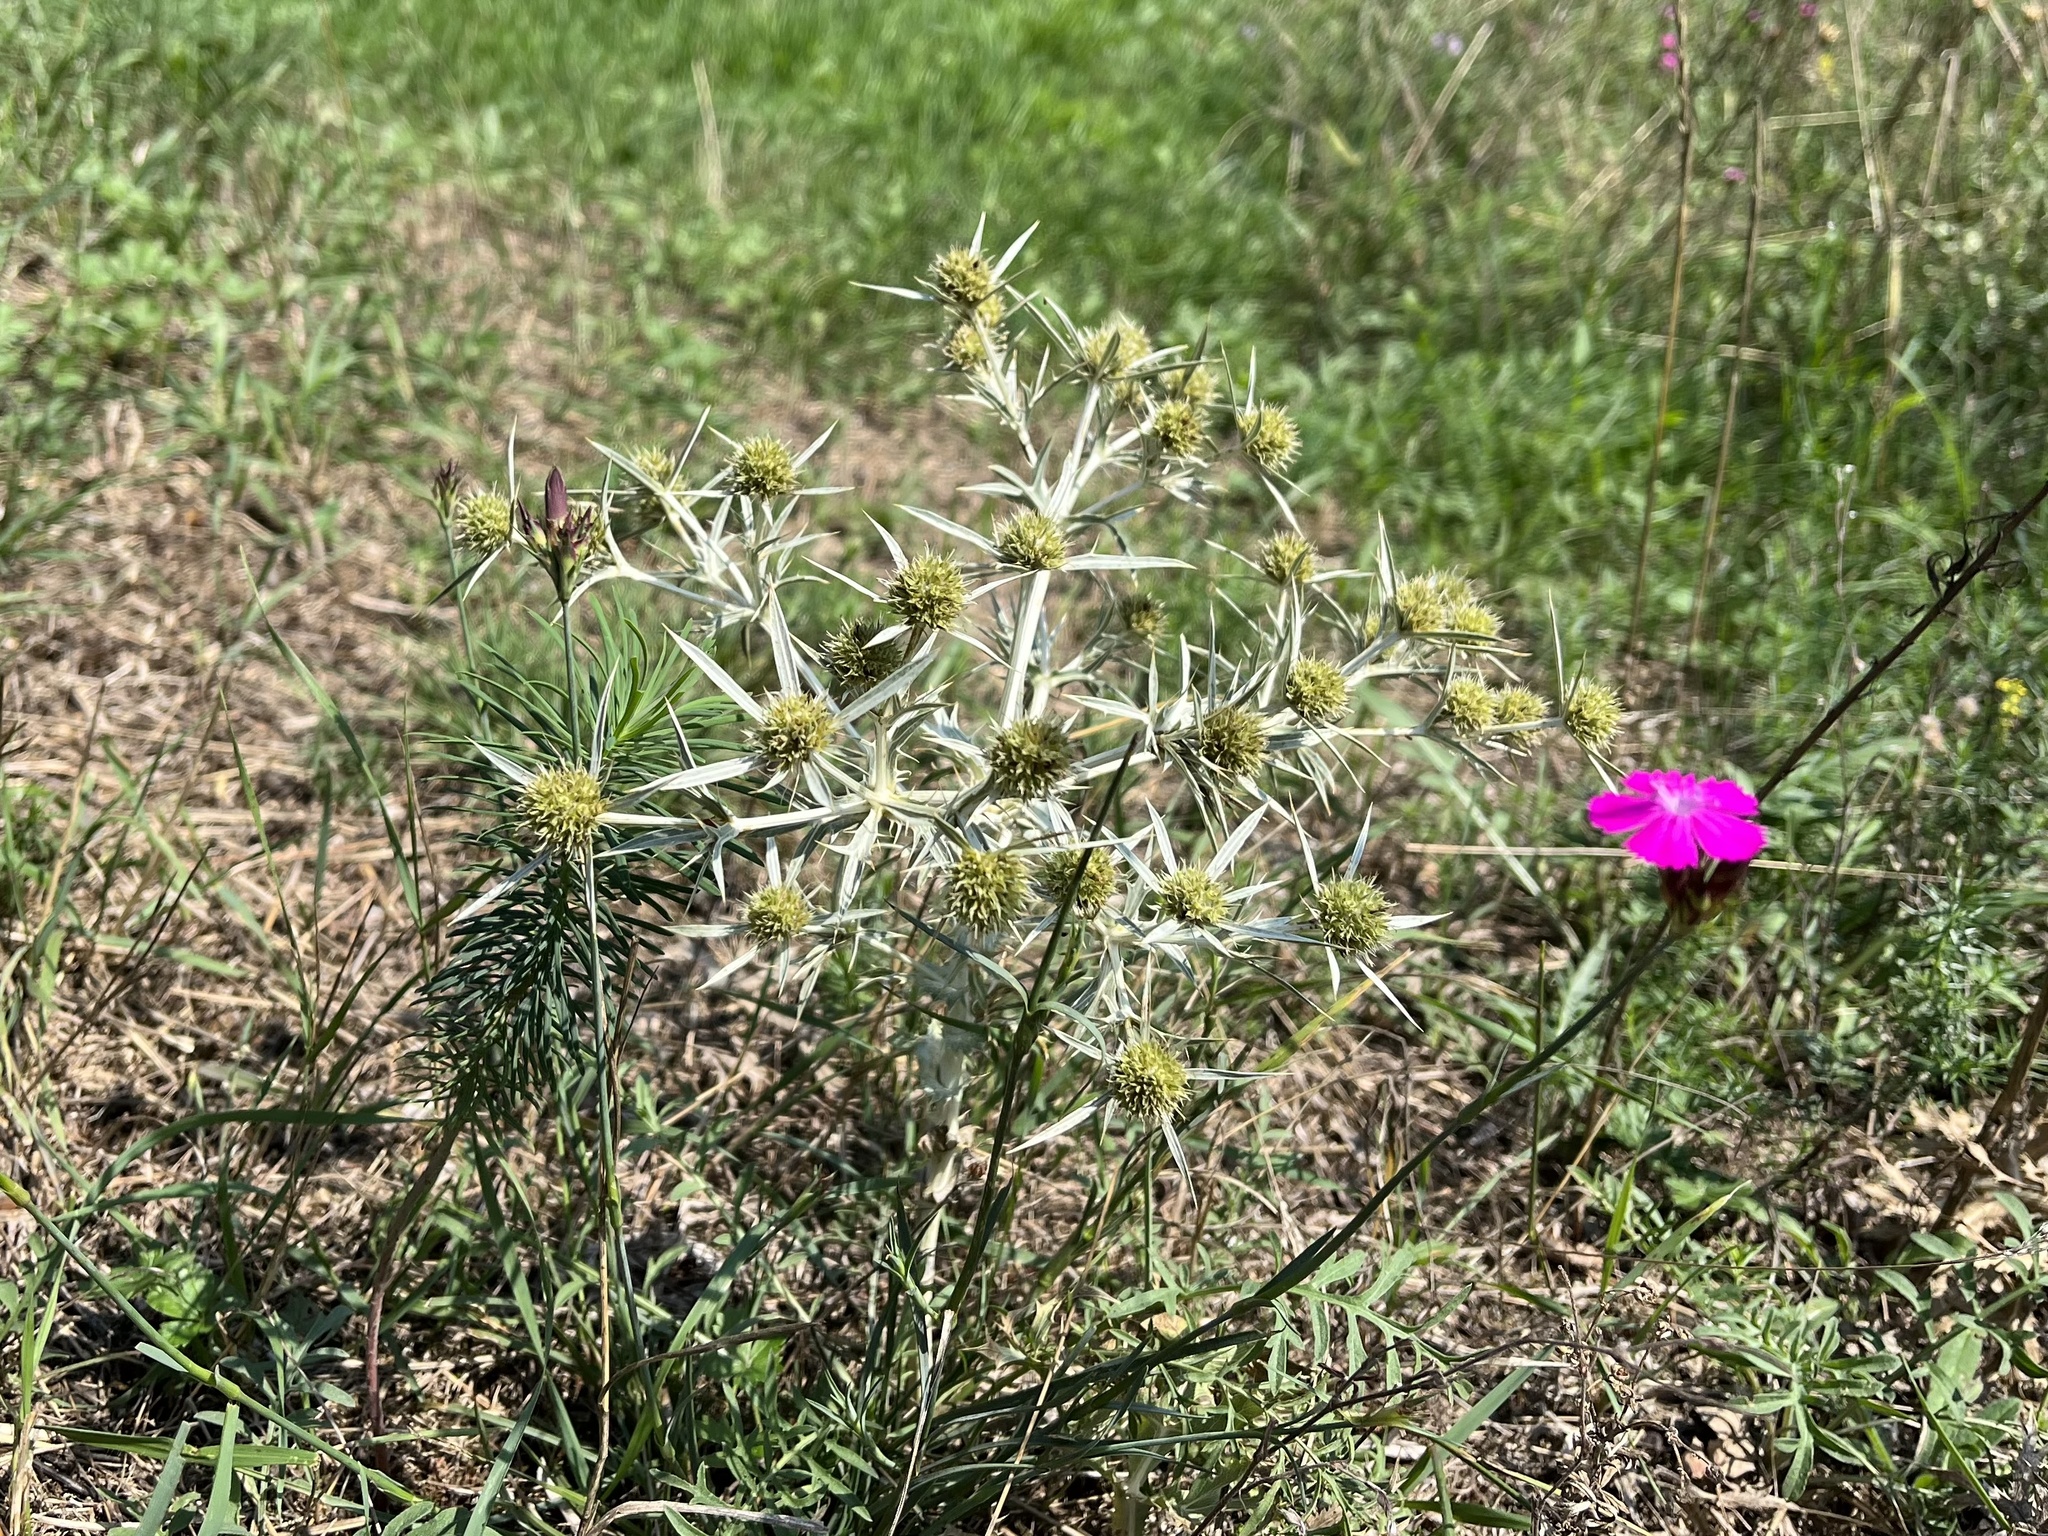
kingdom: Plantae
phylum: Tracheophyta
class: Magnoliopsida
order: Apiales
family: Apiaceae
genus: Eryngium
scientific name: Eryngium campestre
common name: Field eryngo
